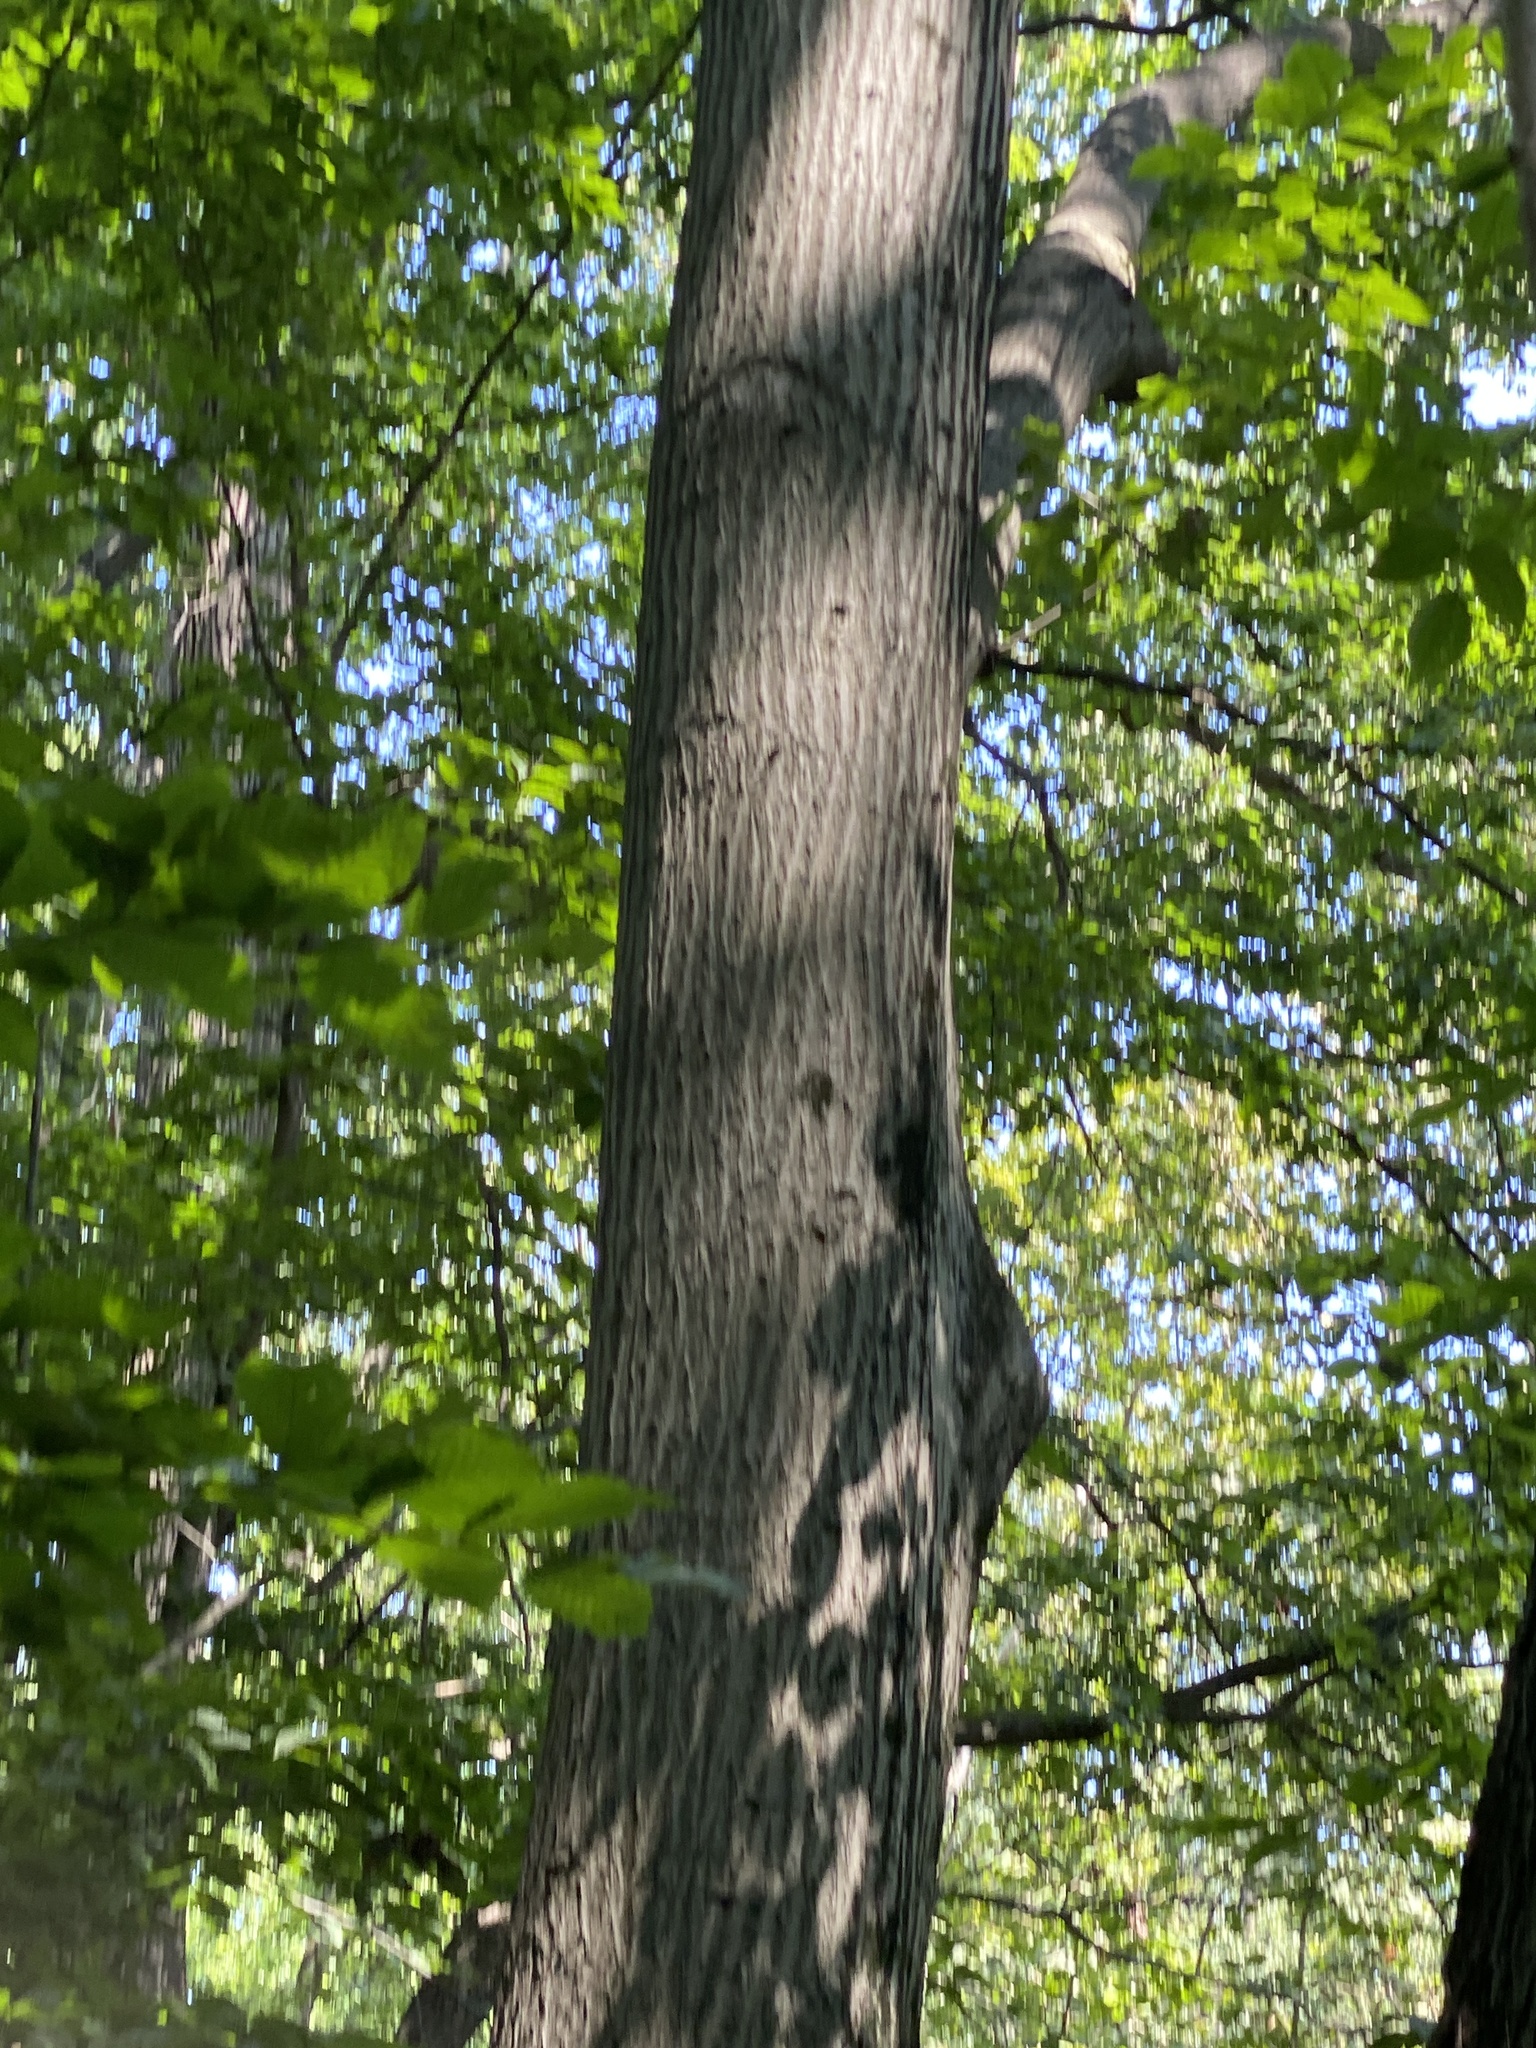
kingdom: Plantae
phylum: Tracheophyta
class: Magnoliopsida
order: Fagales
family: Fagaceae
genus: Quercus
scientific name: Quercus rubra
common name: Red oak
